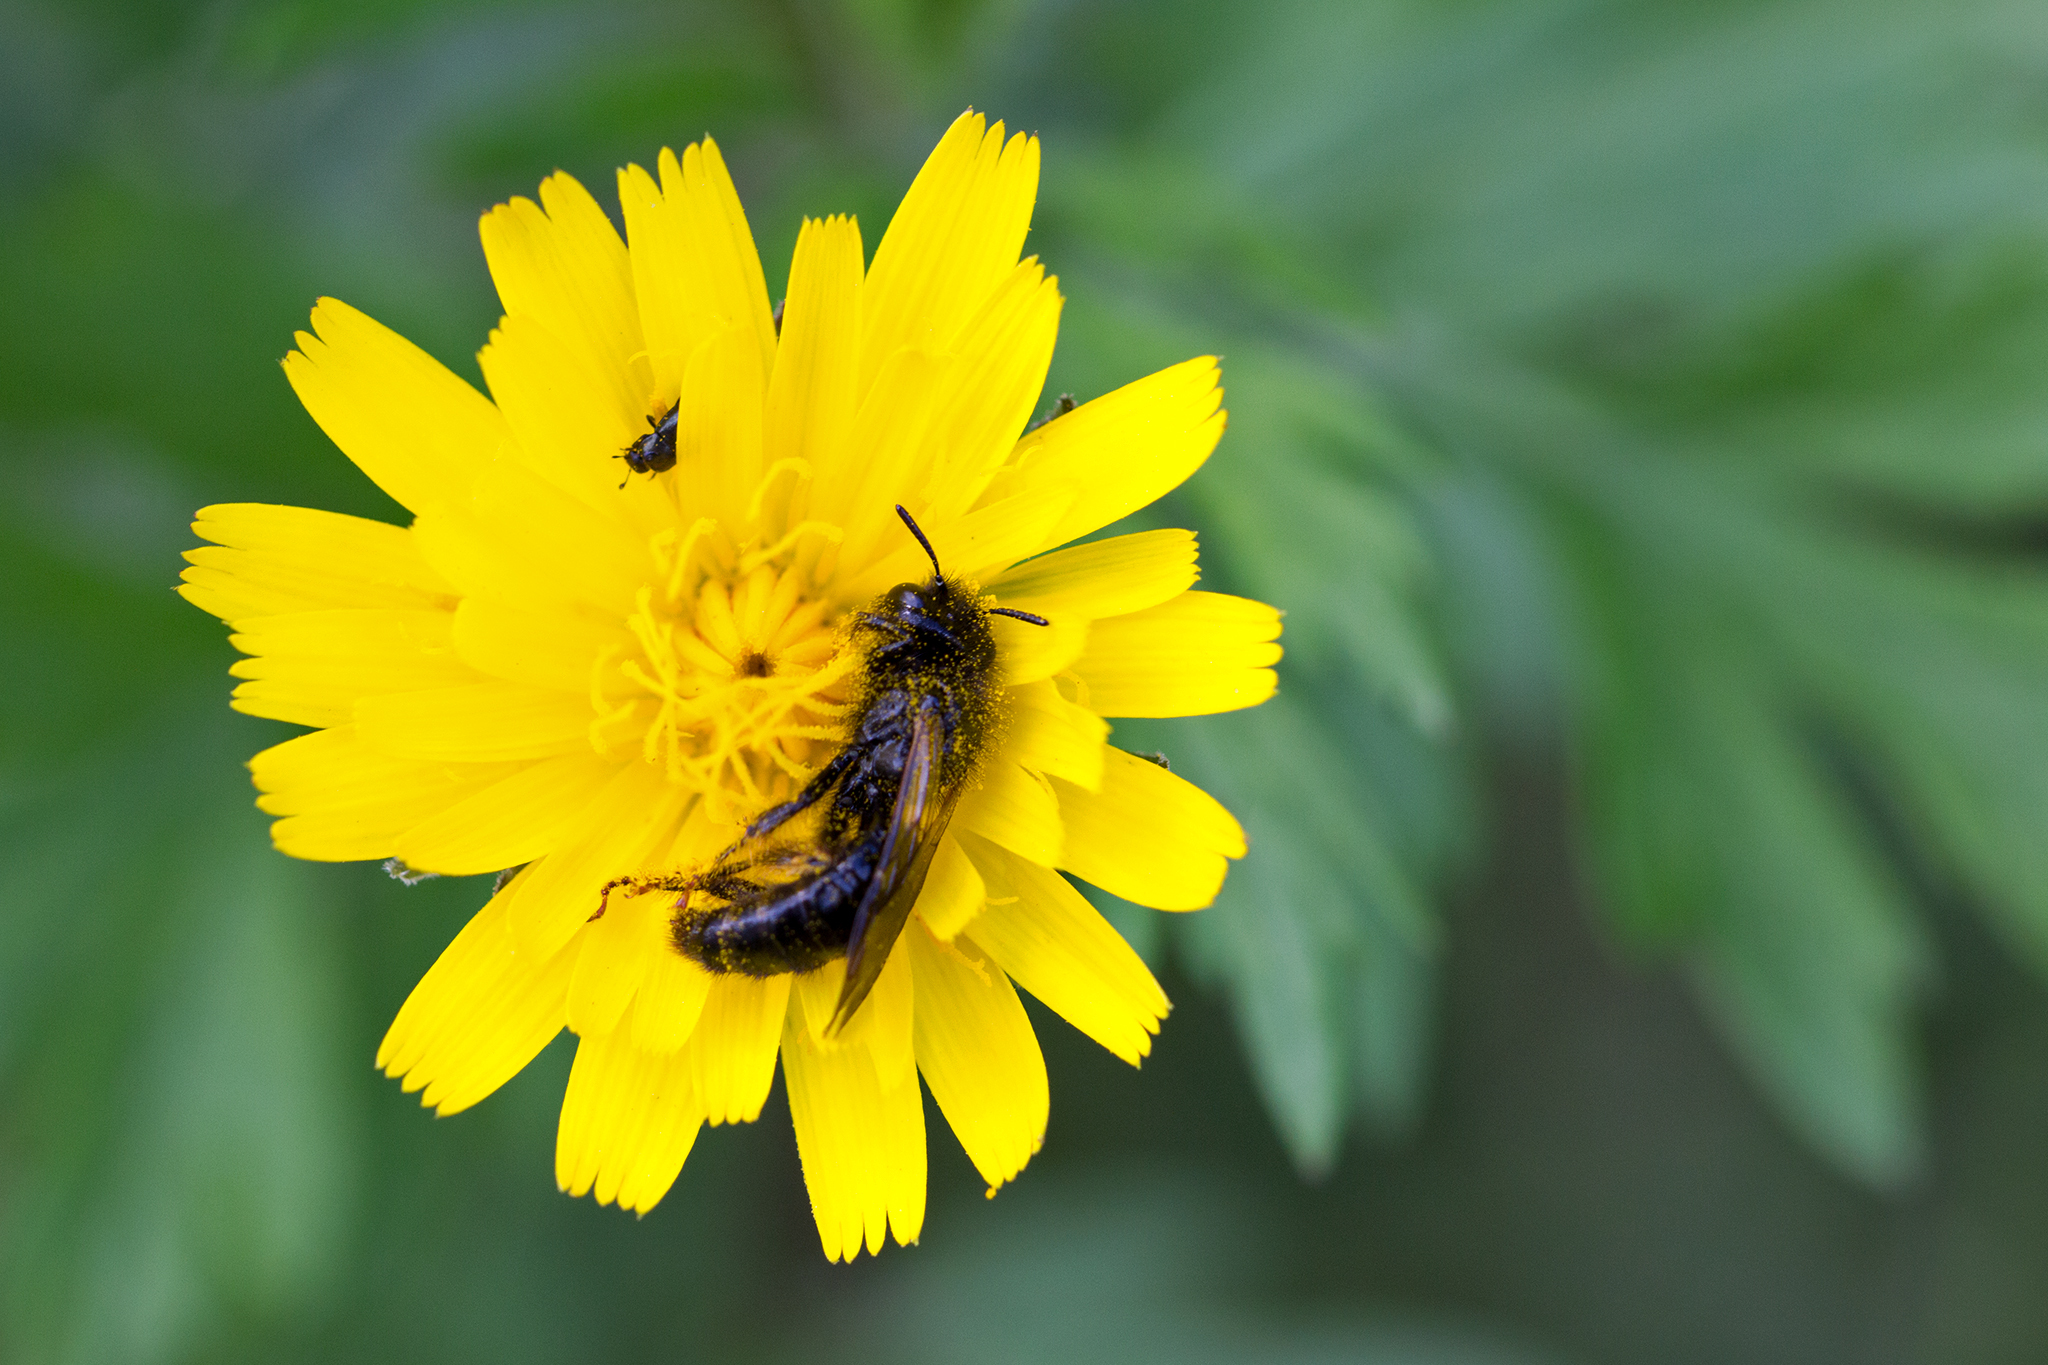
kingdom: Animalia
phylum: Arthropoda
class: Insecta
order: Hymenoptera
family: Andrenidae
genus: Panurgus
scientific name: Panurgus calcaratus
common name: Small shaggy bee
